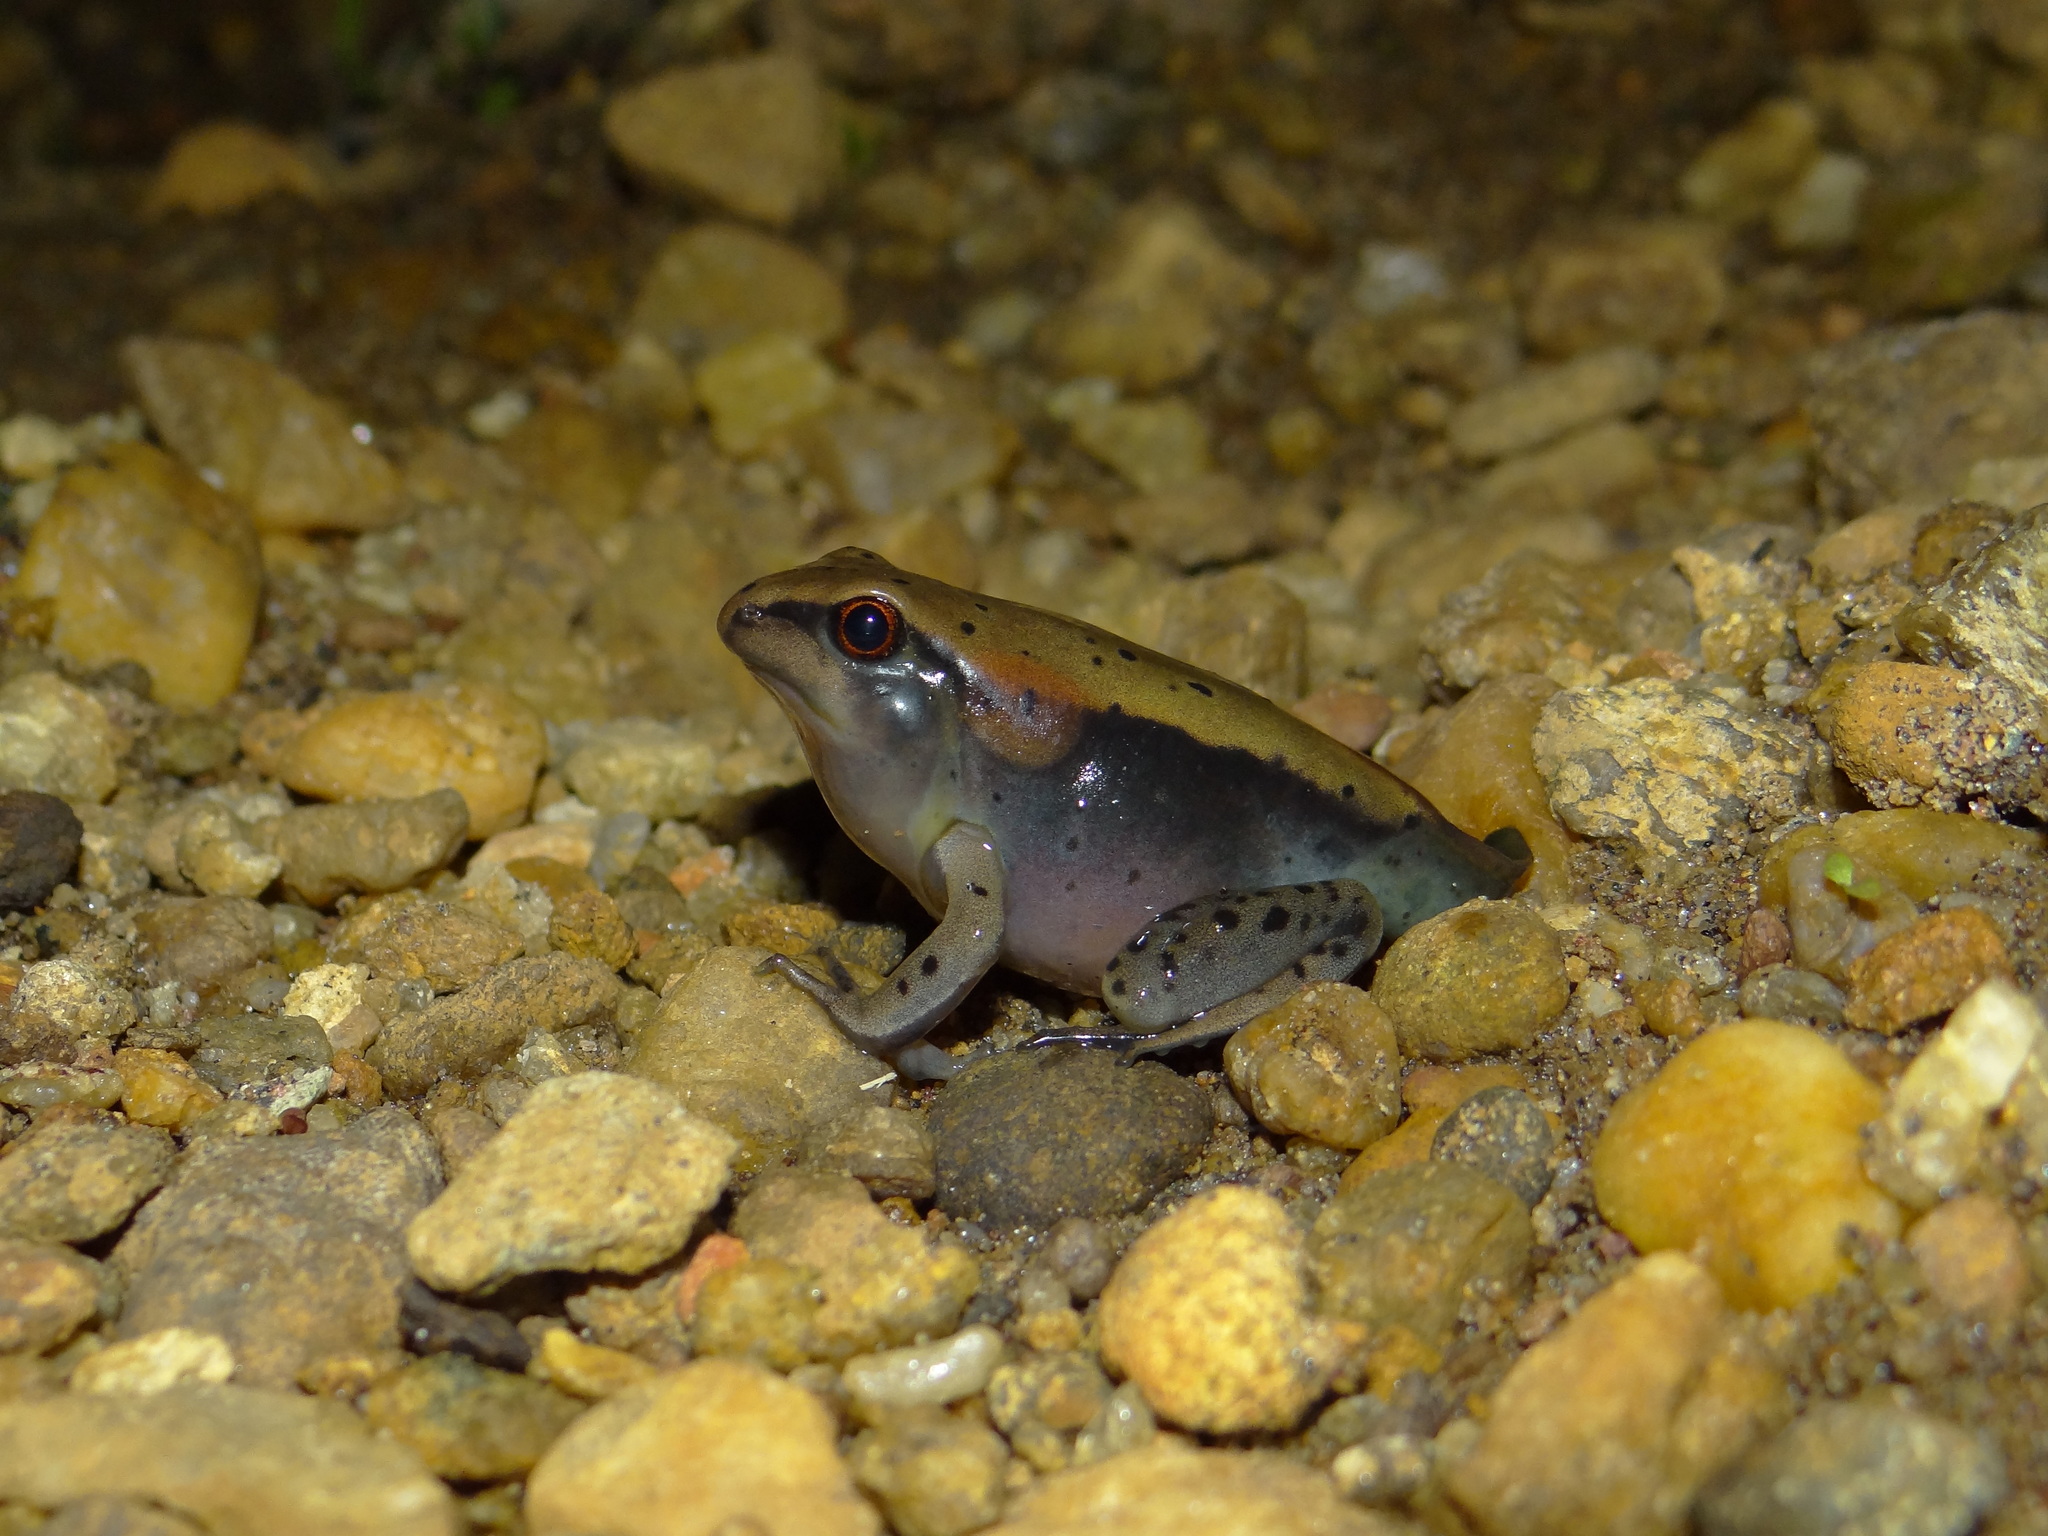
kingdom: Animalia
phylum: Chordata
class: Amphibia
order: Anura
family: Ranidae
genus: Clinotarsus
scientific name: Clinotarsus curtipes
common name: Bicoloured frog
